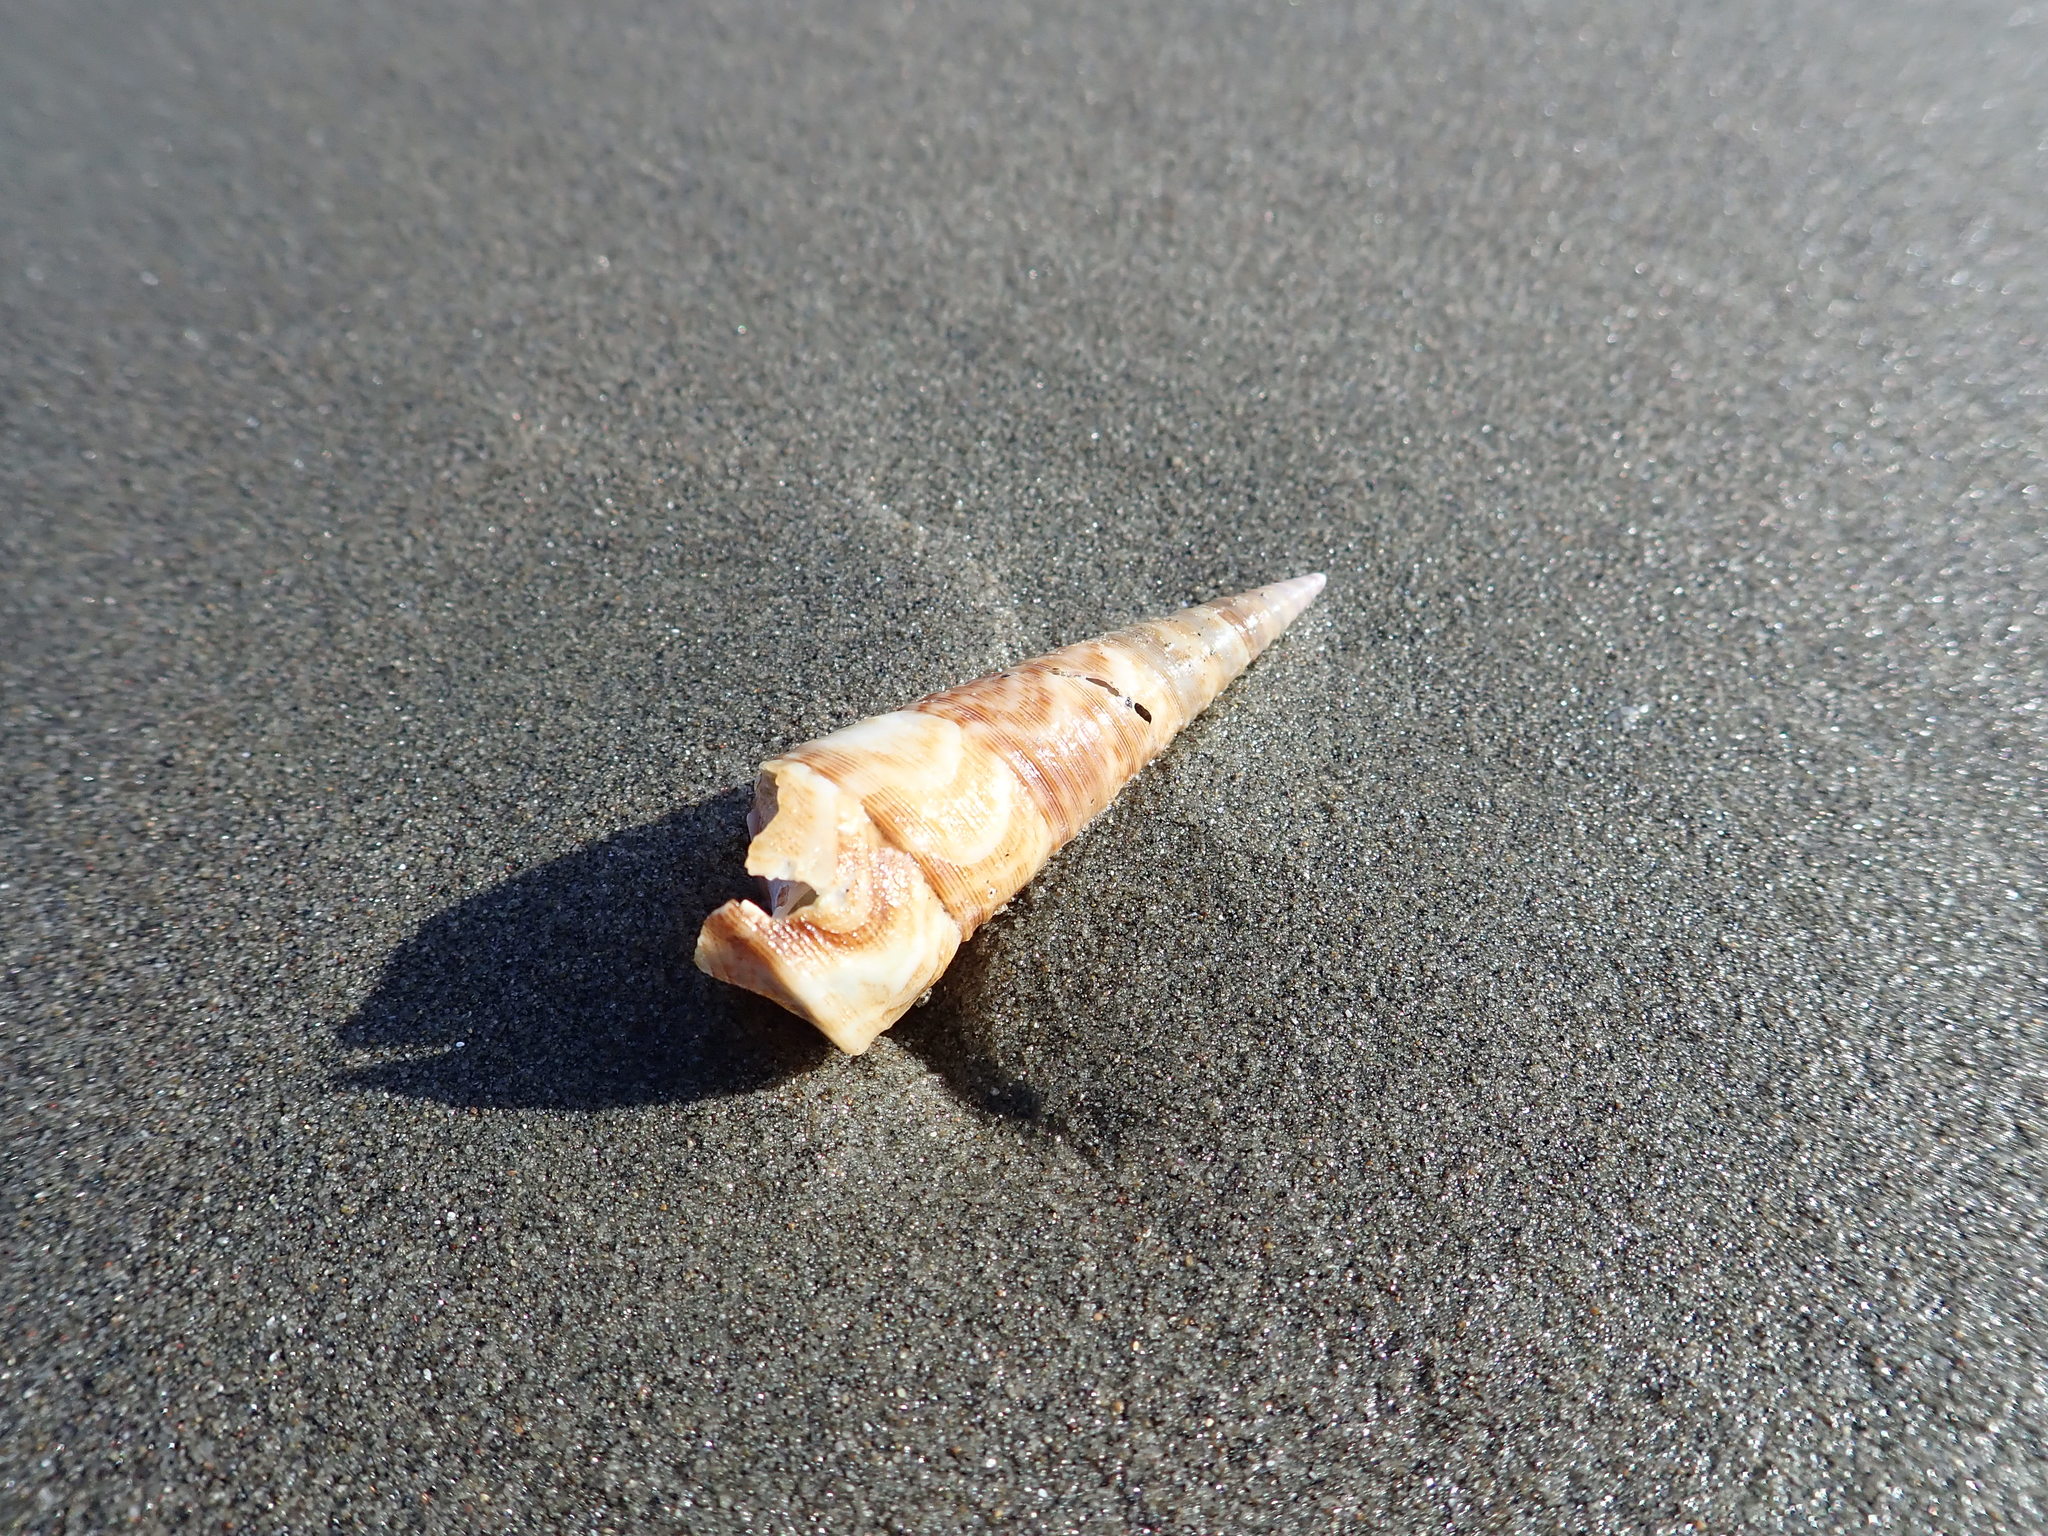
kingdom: Animalia
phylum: Mollusca
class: Gastropoda
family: Turritellidae
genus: Maoricolpus
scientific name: Maoricolpus roseus
